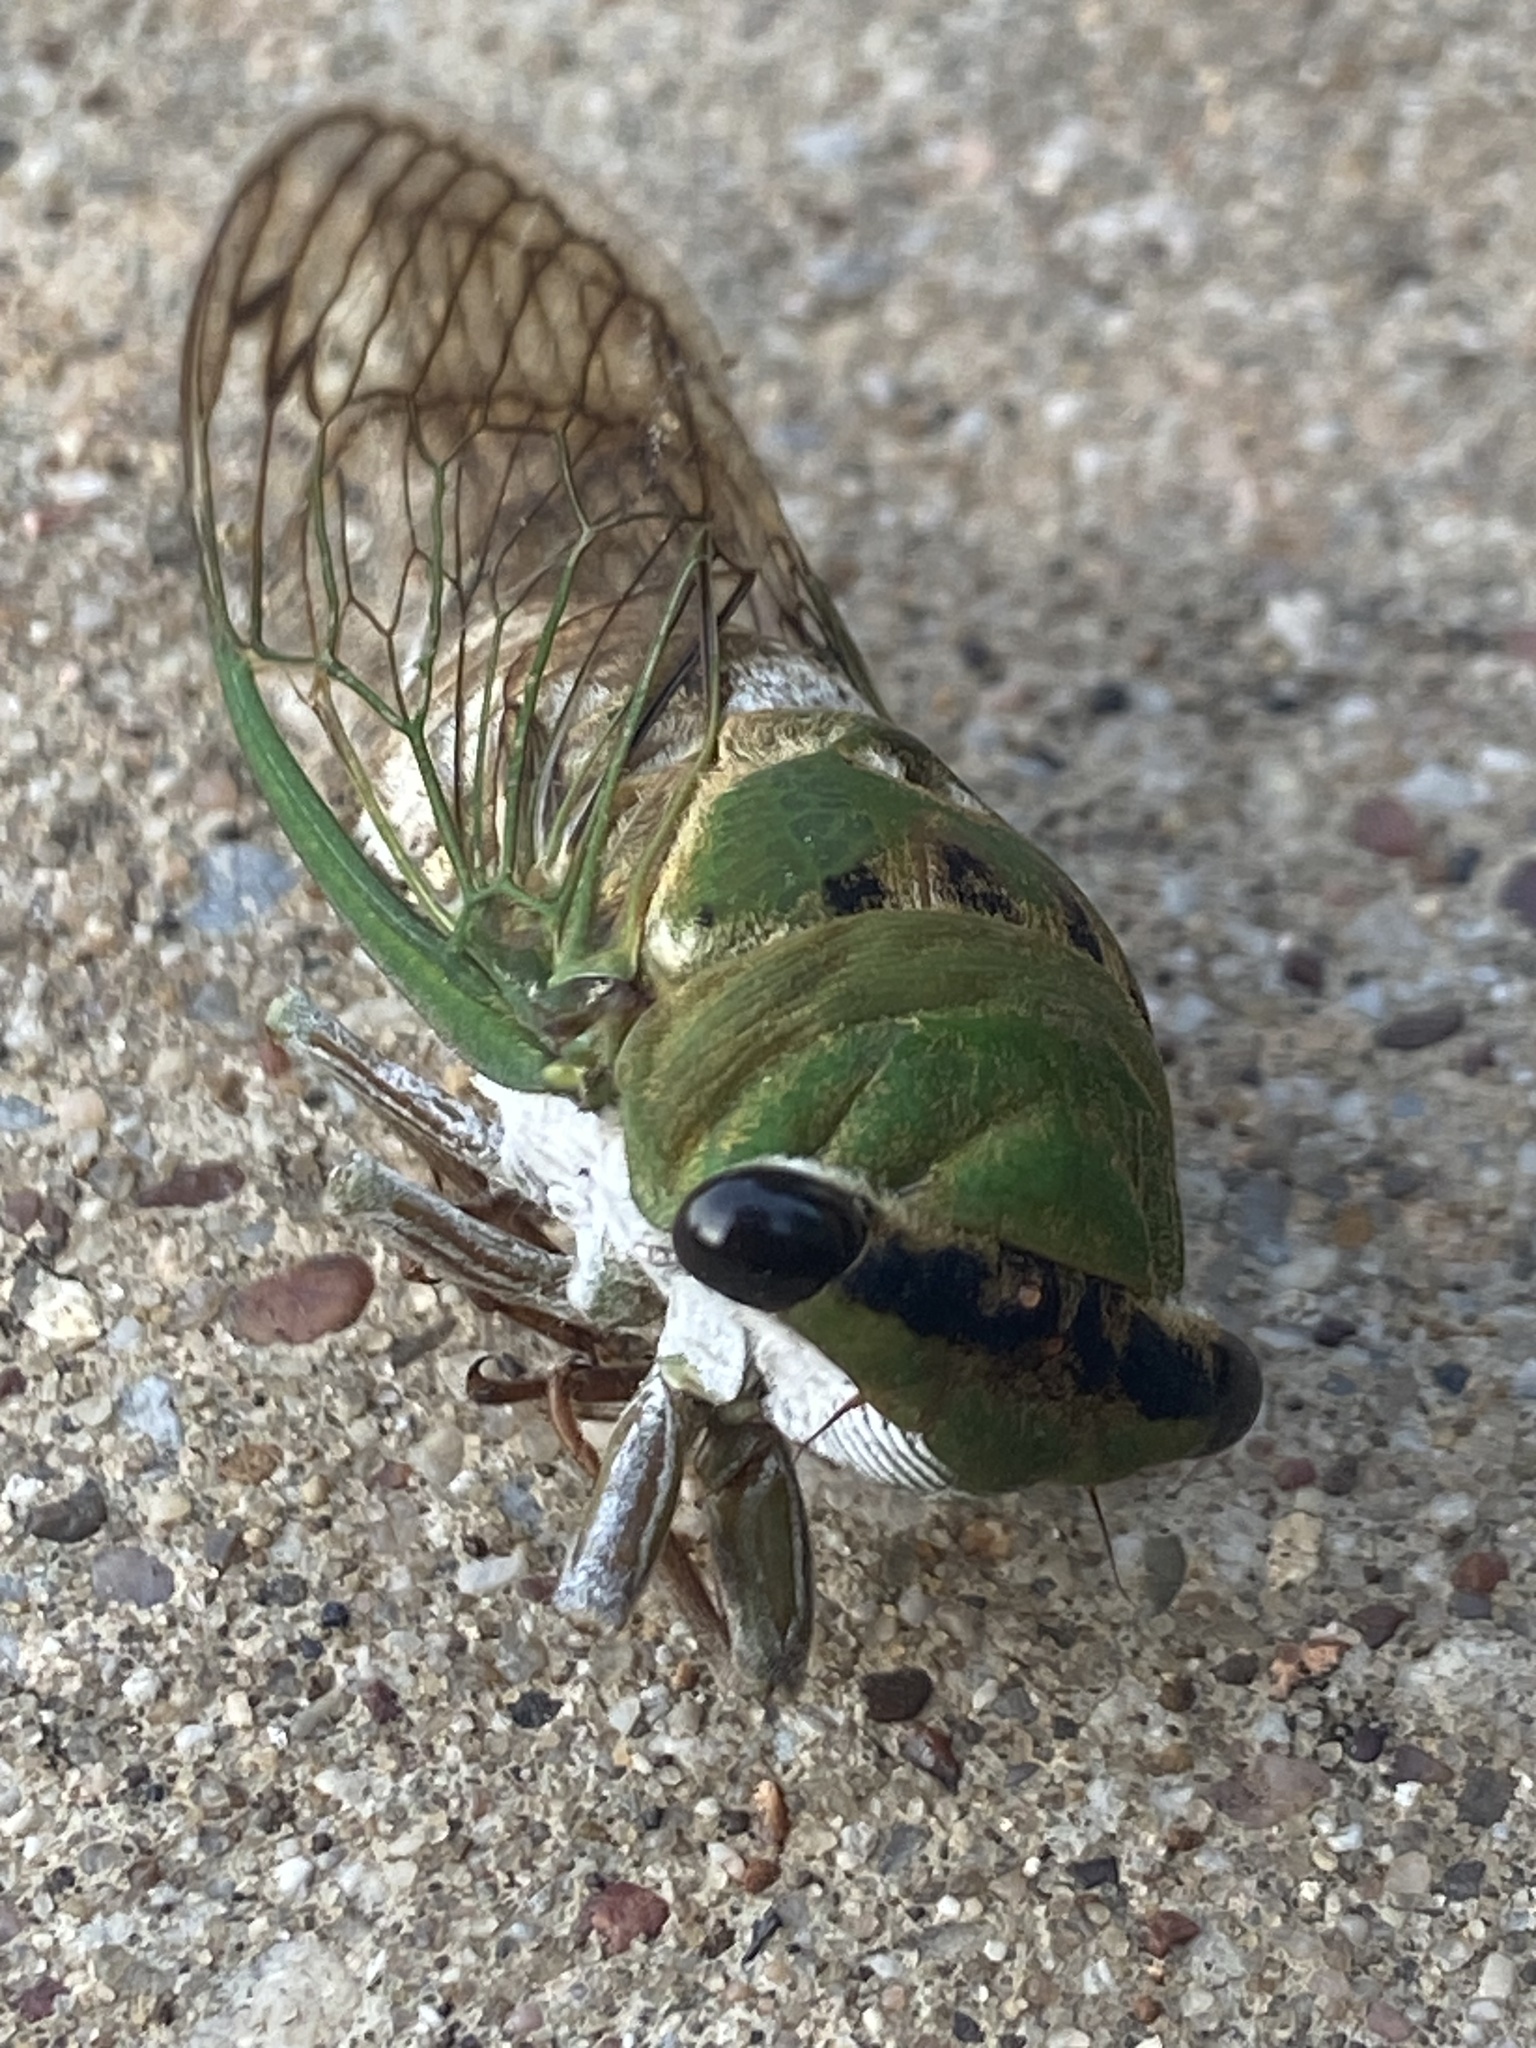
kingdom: Animalia
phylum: Arthropoda
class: Insecta
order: Hemiptera
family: Cicadidae
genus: Neotibicen
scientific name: Neotibicen superbus
